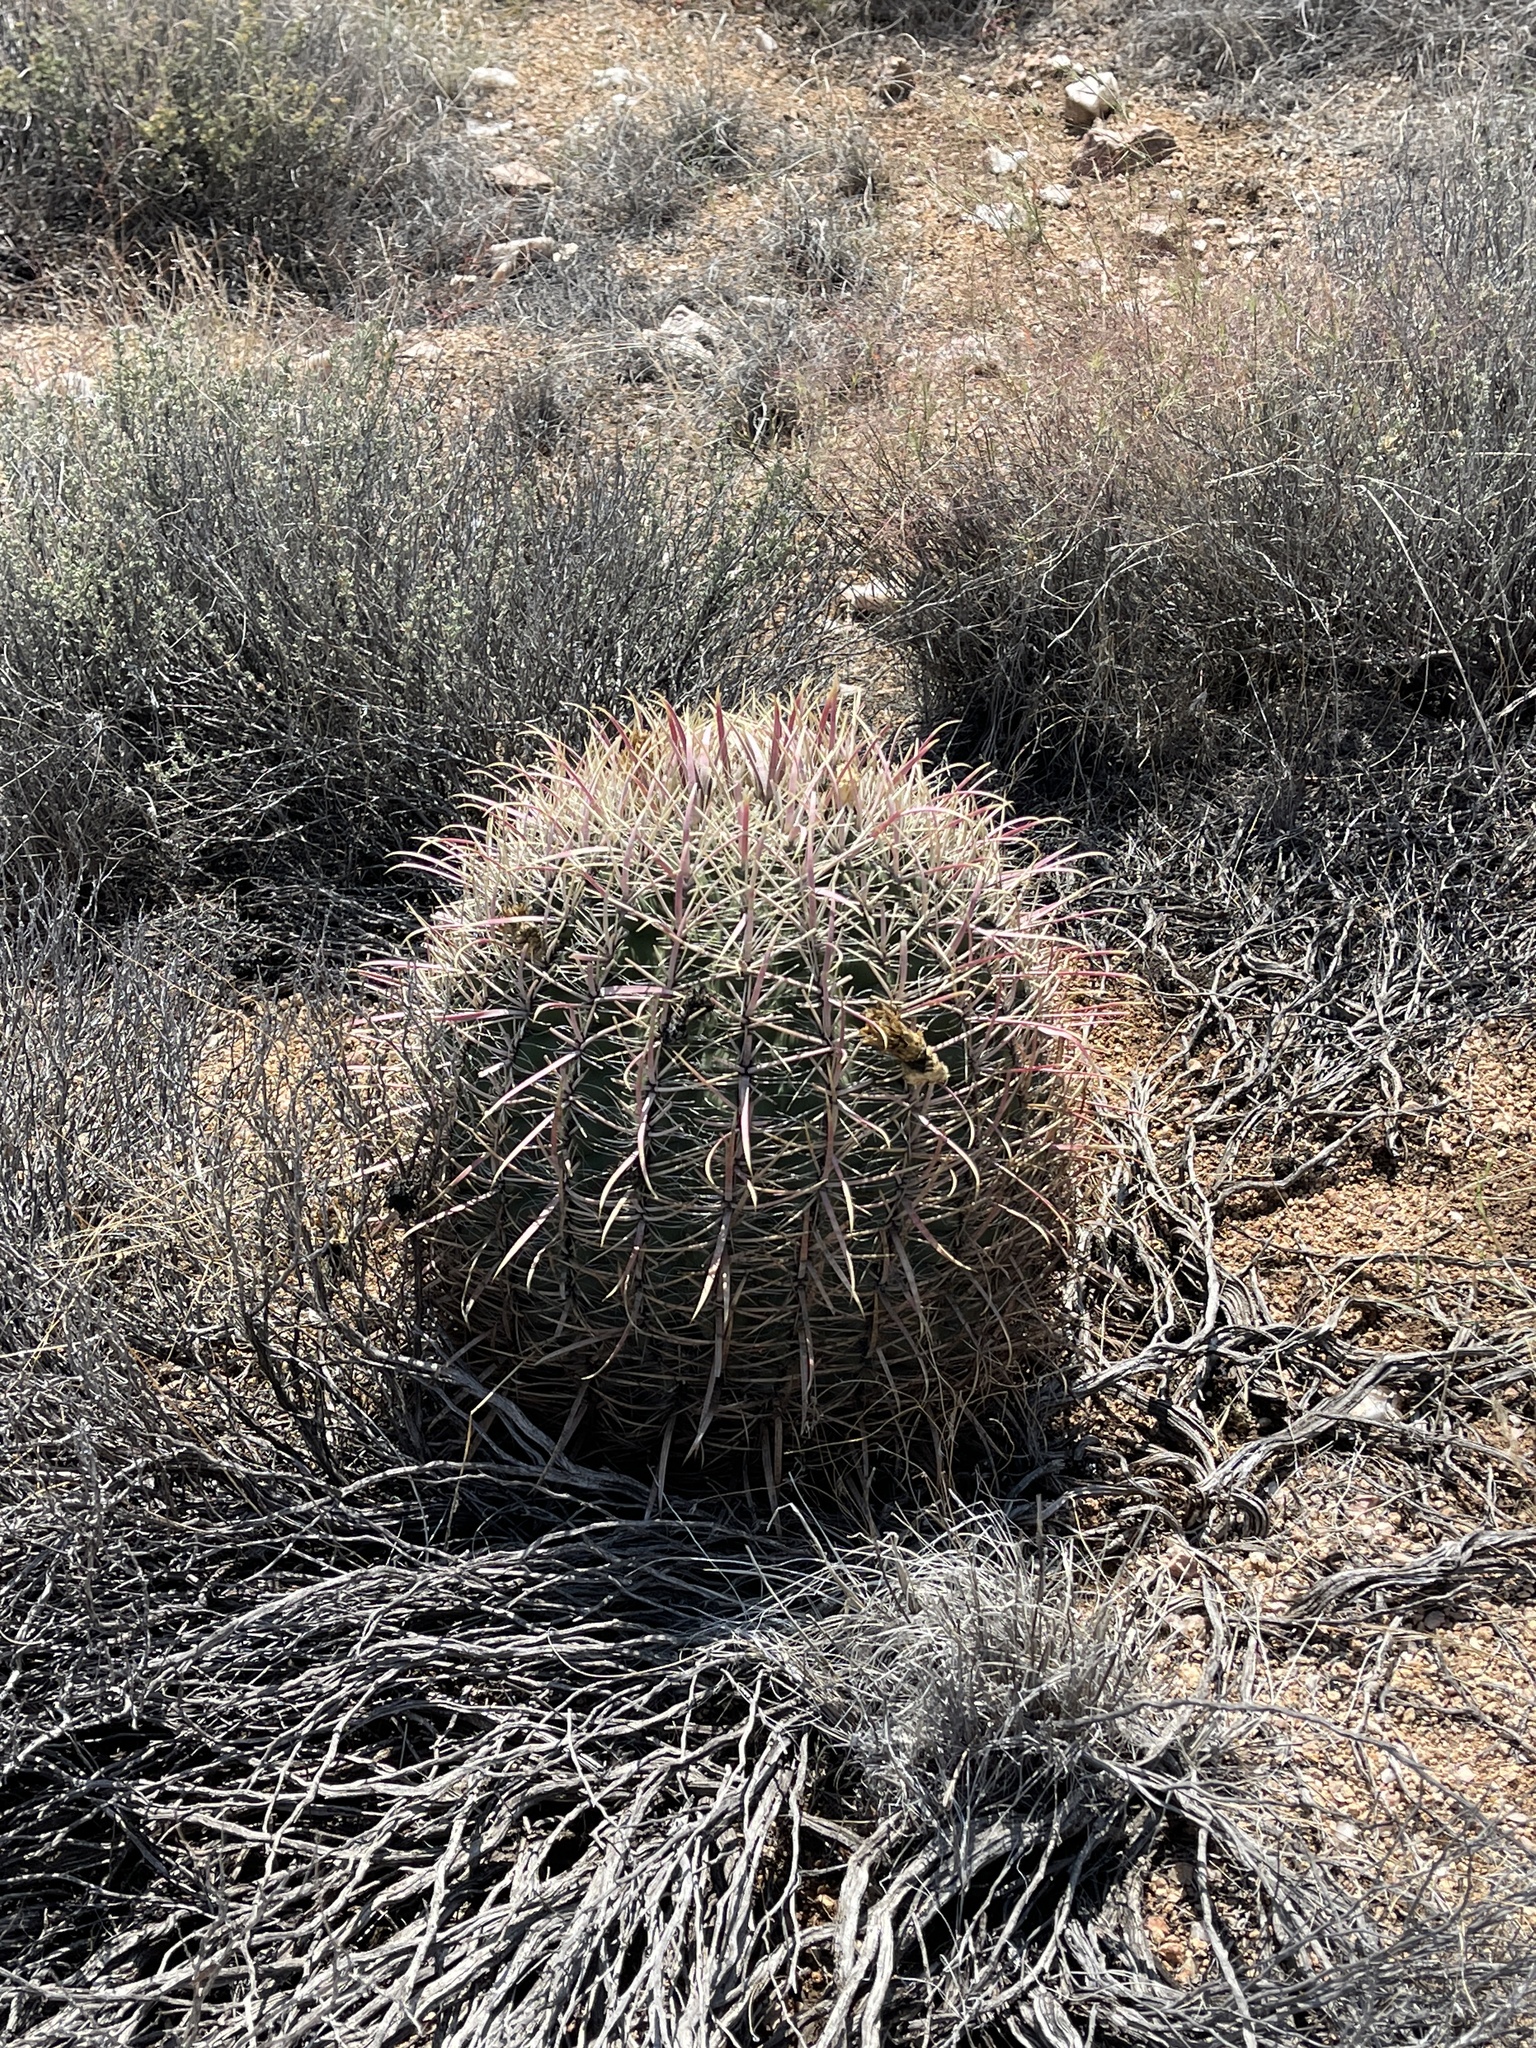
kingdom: Plantae
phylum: Tracheophyta
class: Magnoliopsida
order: Caryophyllales
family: Cactaceae
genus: Ferocactus
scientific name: Ferocactus cylindraceus
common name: California barrel cactus
